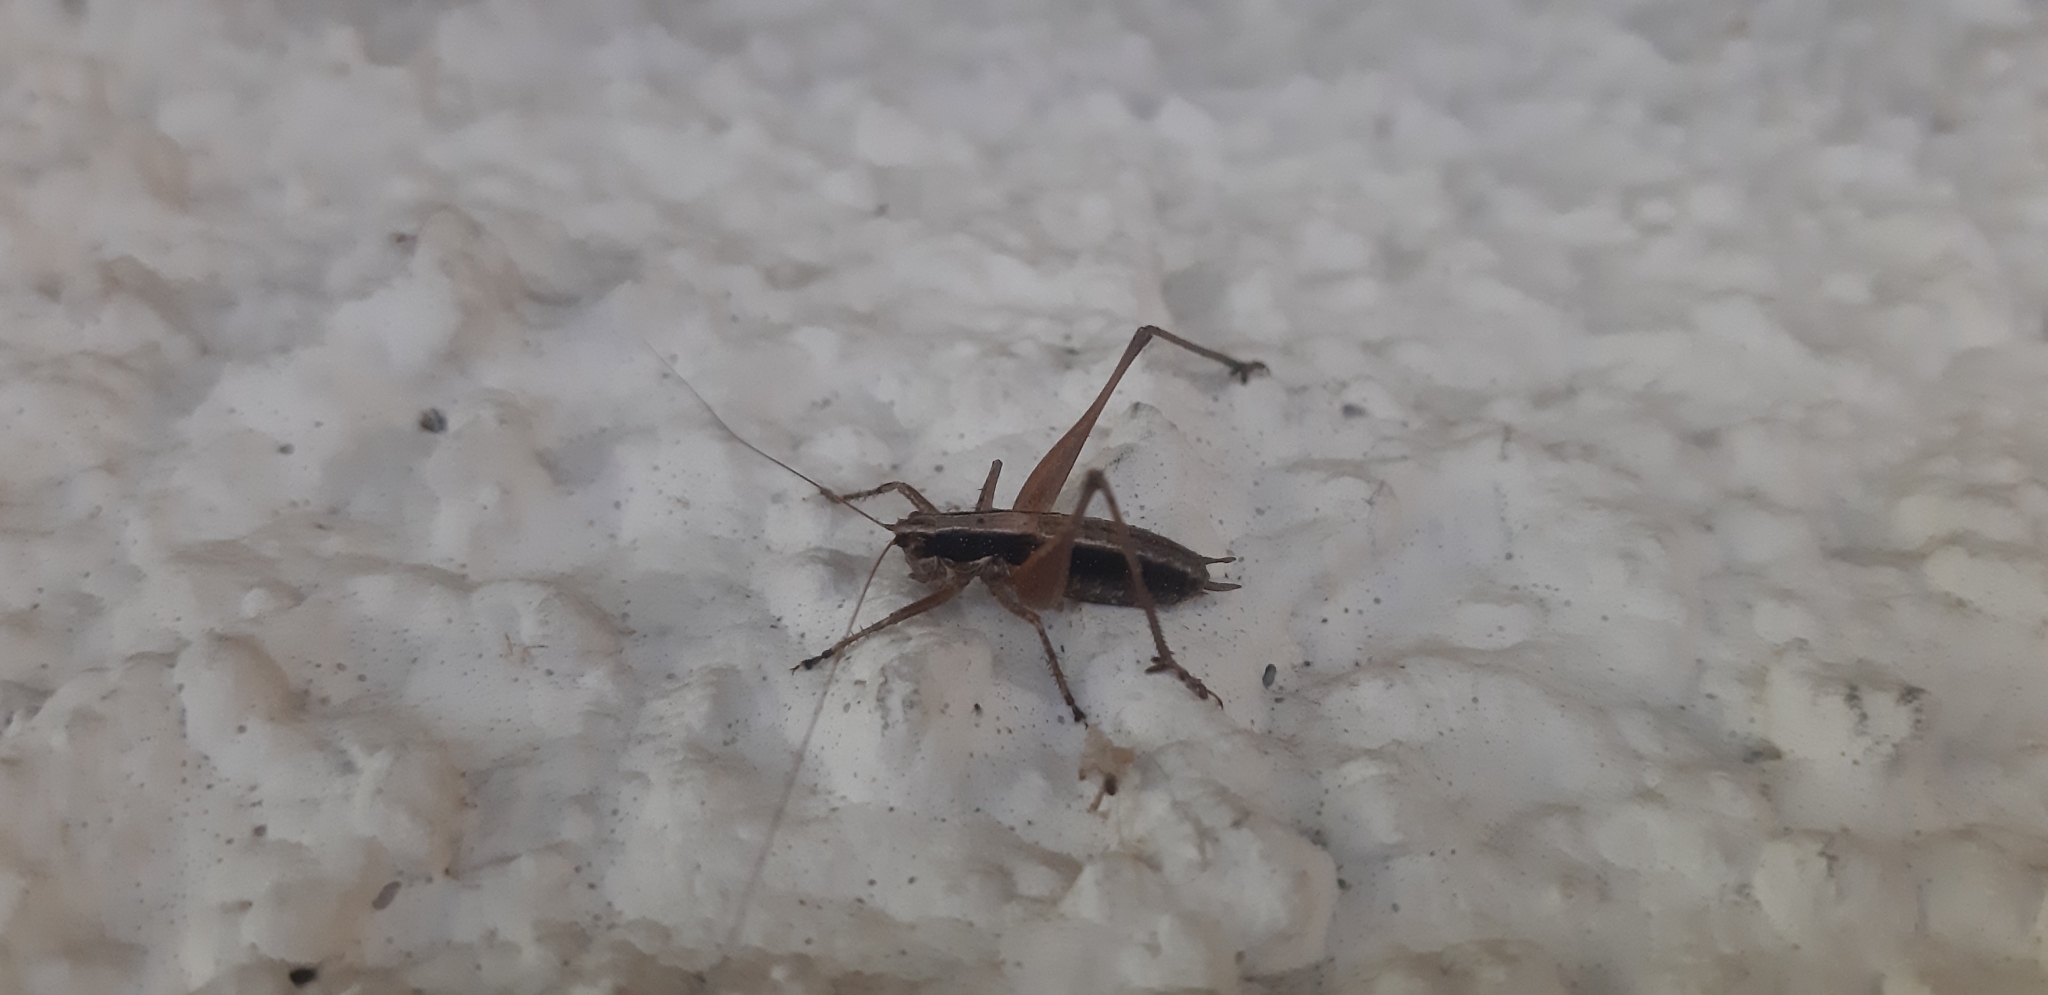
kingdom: Animalia
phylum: Arthropoda
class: Insecta
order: Orthoptera
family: Tettigoniidae
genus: Yersinella
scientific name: Yersinella raymondii
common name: Raymond's bush-cricket
